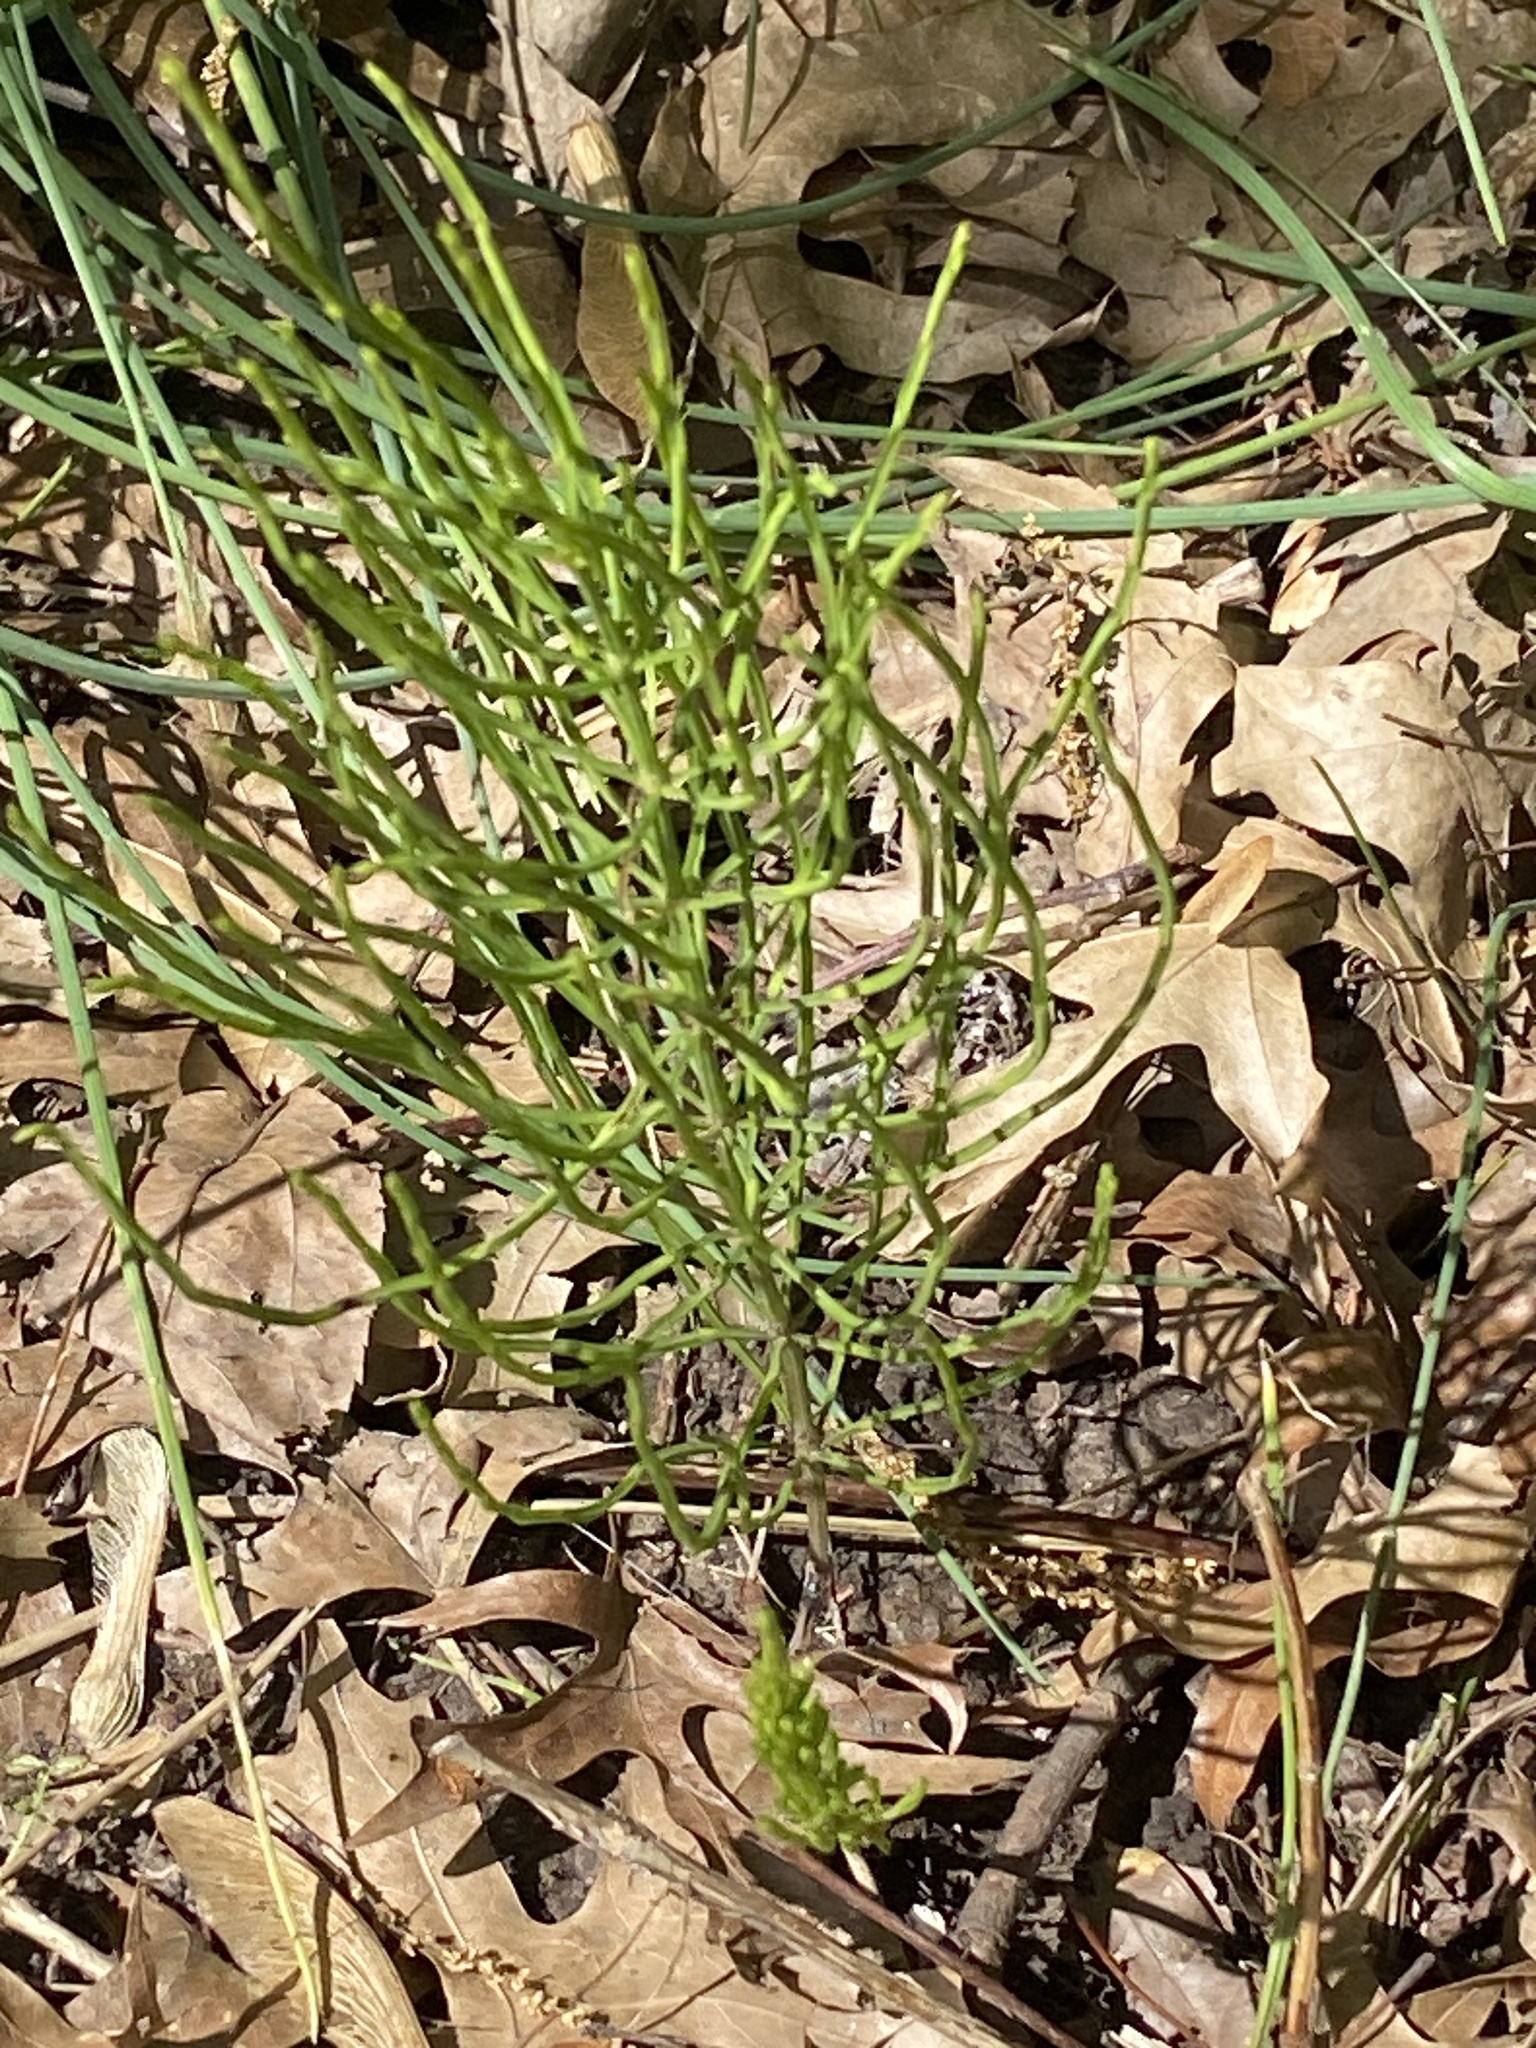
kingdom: Plantae
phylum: Tracheophyta
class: Polypodiopsida
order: Equisetales
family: Equisetaceae
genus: Equisetum
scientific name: Equisetum arvense
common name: Field horsetail
